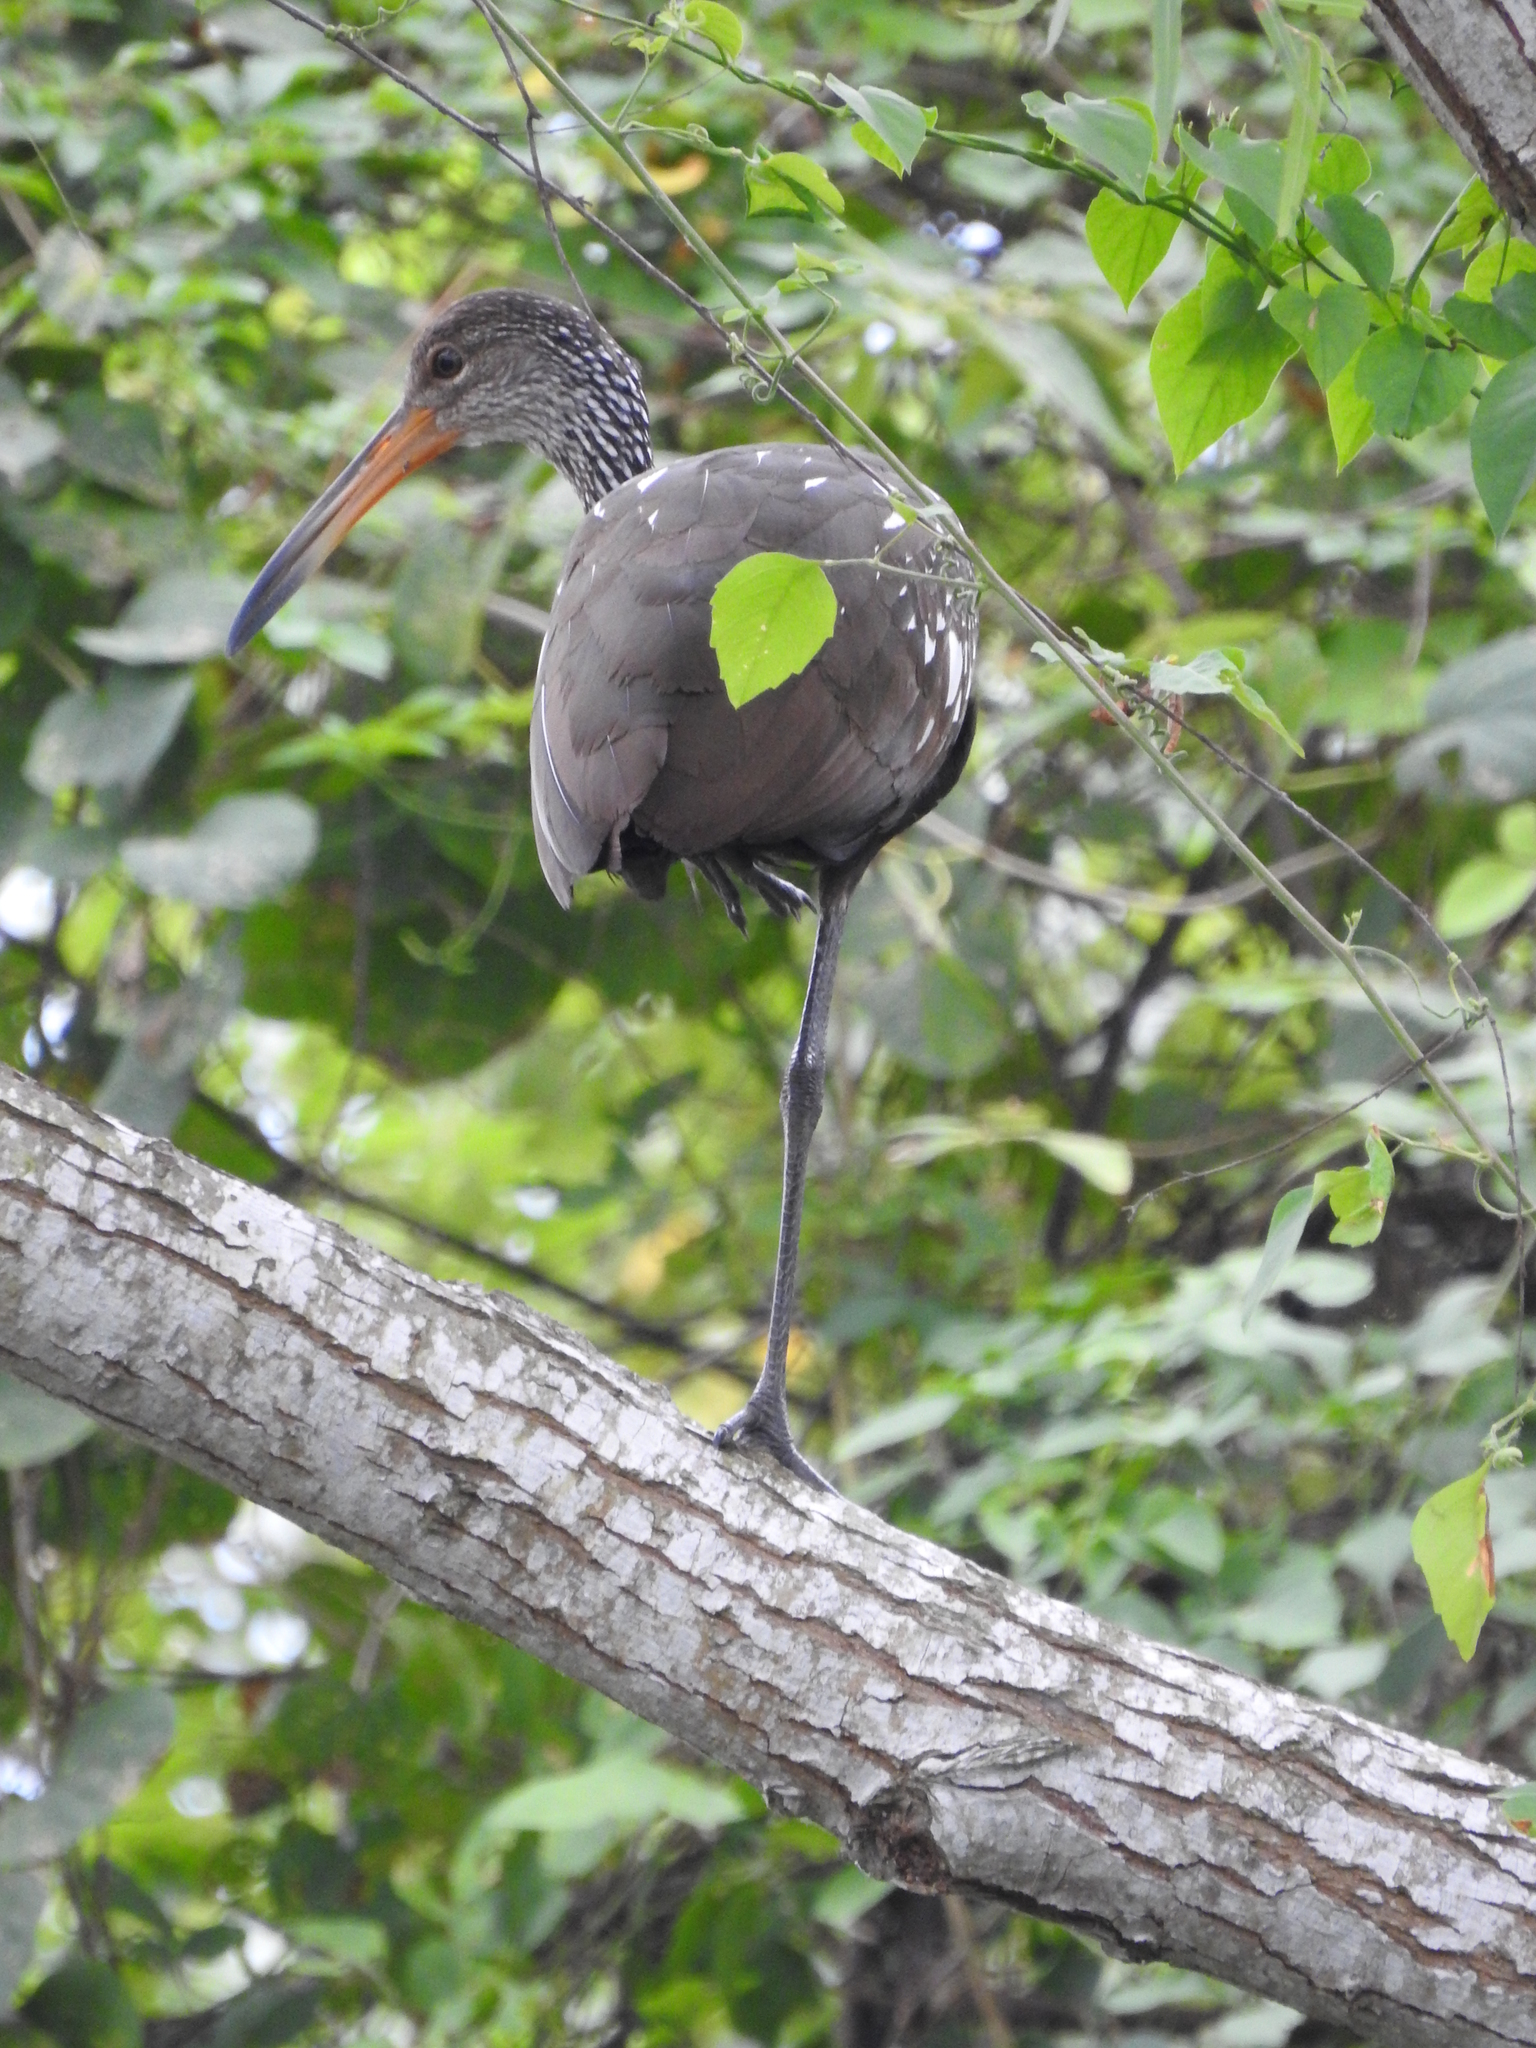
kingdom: Animalia
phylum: Chordata
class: Aves
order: Gruiformes
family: Aramidae
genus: Aramus
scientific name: Aramus guarauna
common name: Limpkin
